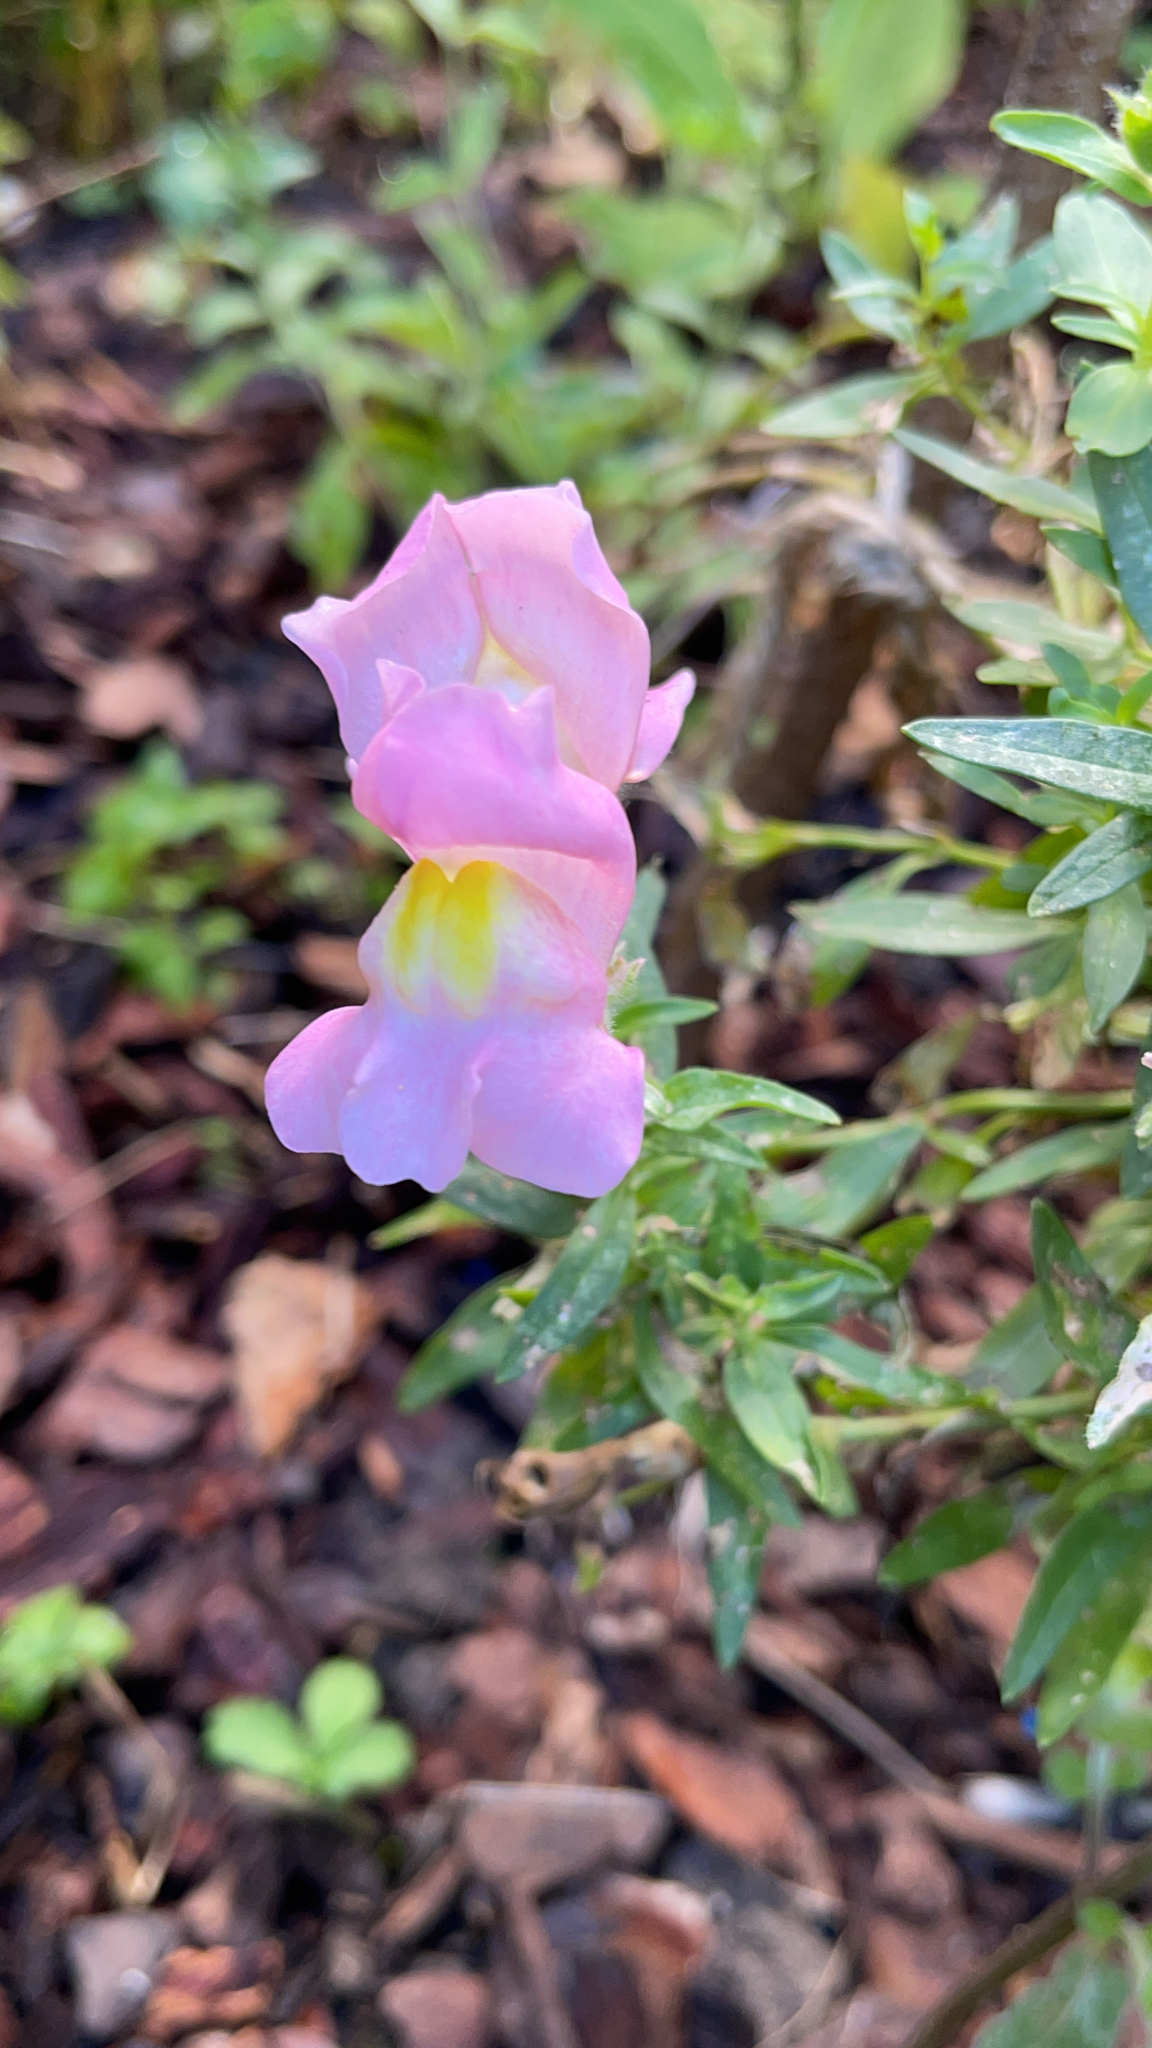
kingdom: Plantae
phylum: Tracheophyta
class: Magnoliopsida
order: Lamiales
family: Plantaginaceae
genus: Antirrhinum
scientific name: Antirrhinum majus
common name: Snapdragon
